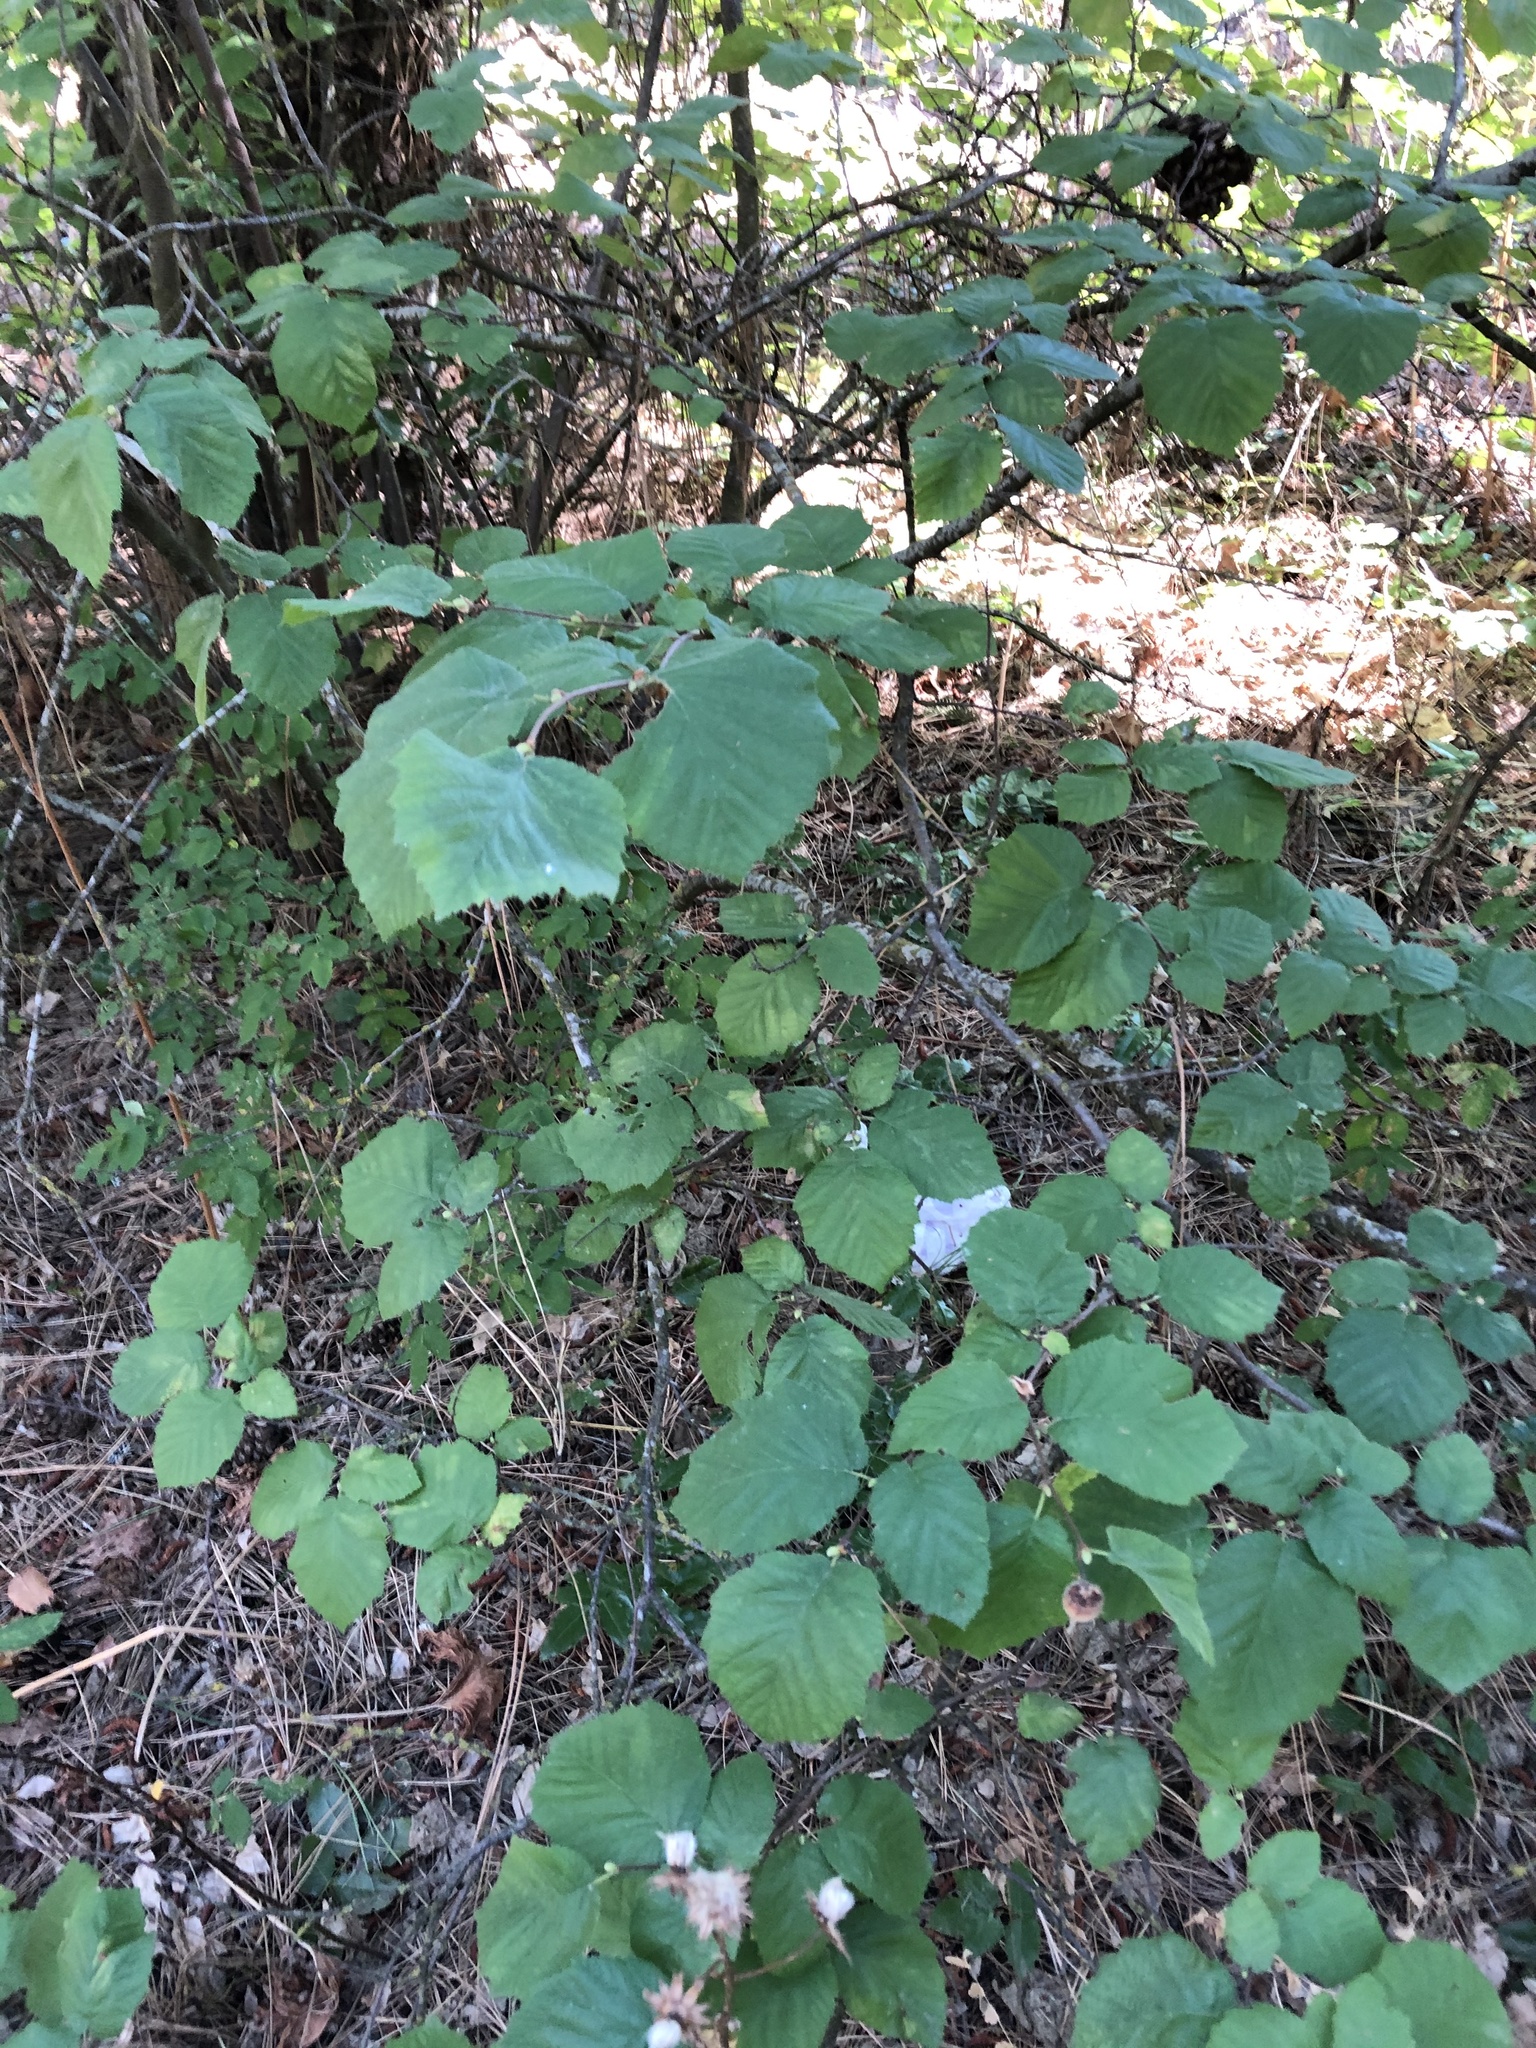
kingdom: Plantae
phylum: Tracheophyta
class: Magnoliopsida
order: Fagales
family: Betulaceae
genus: Corylus
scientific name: Corylus cornuta
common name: Beaked hazel
